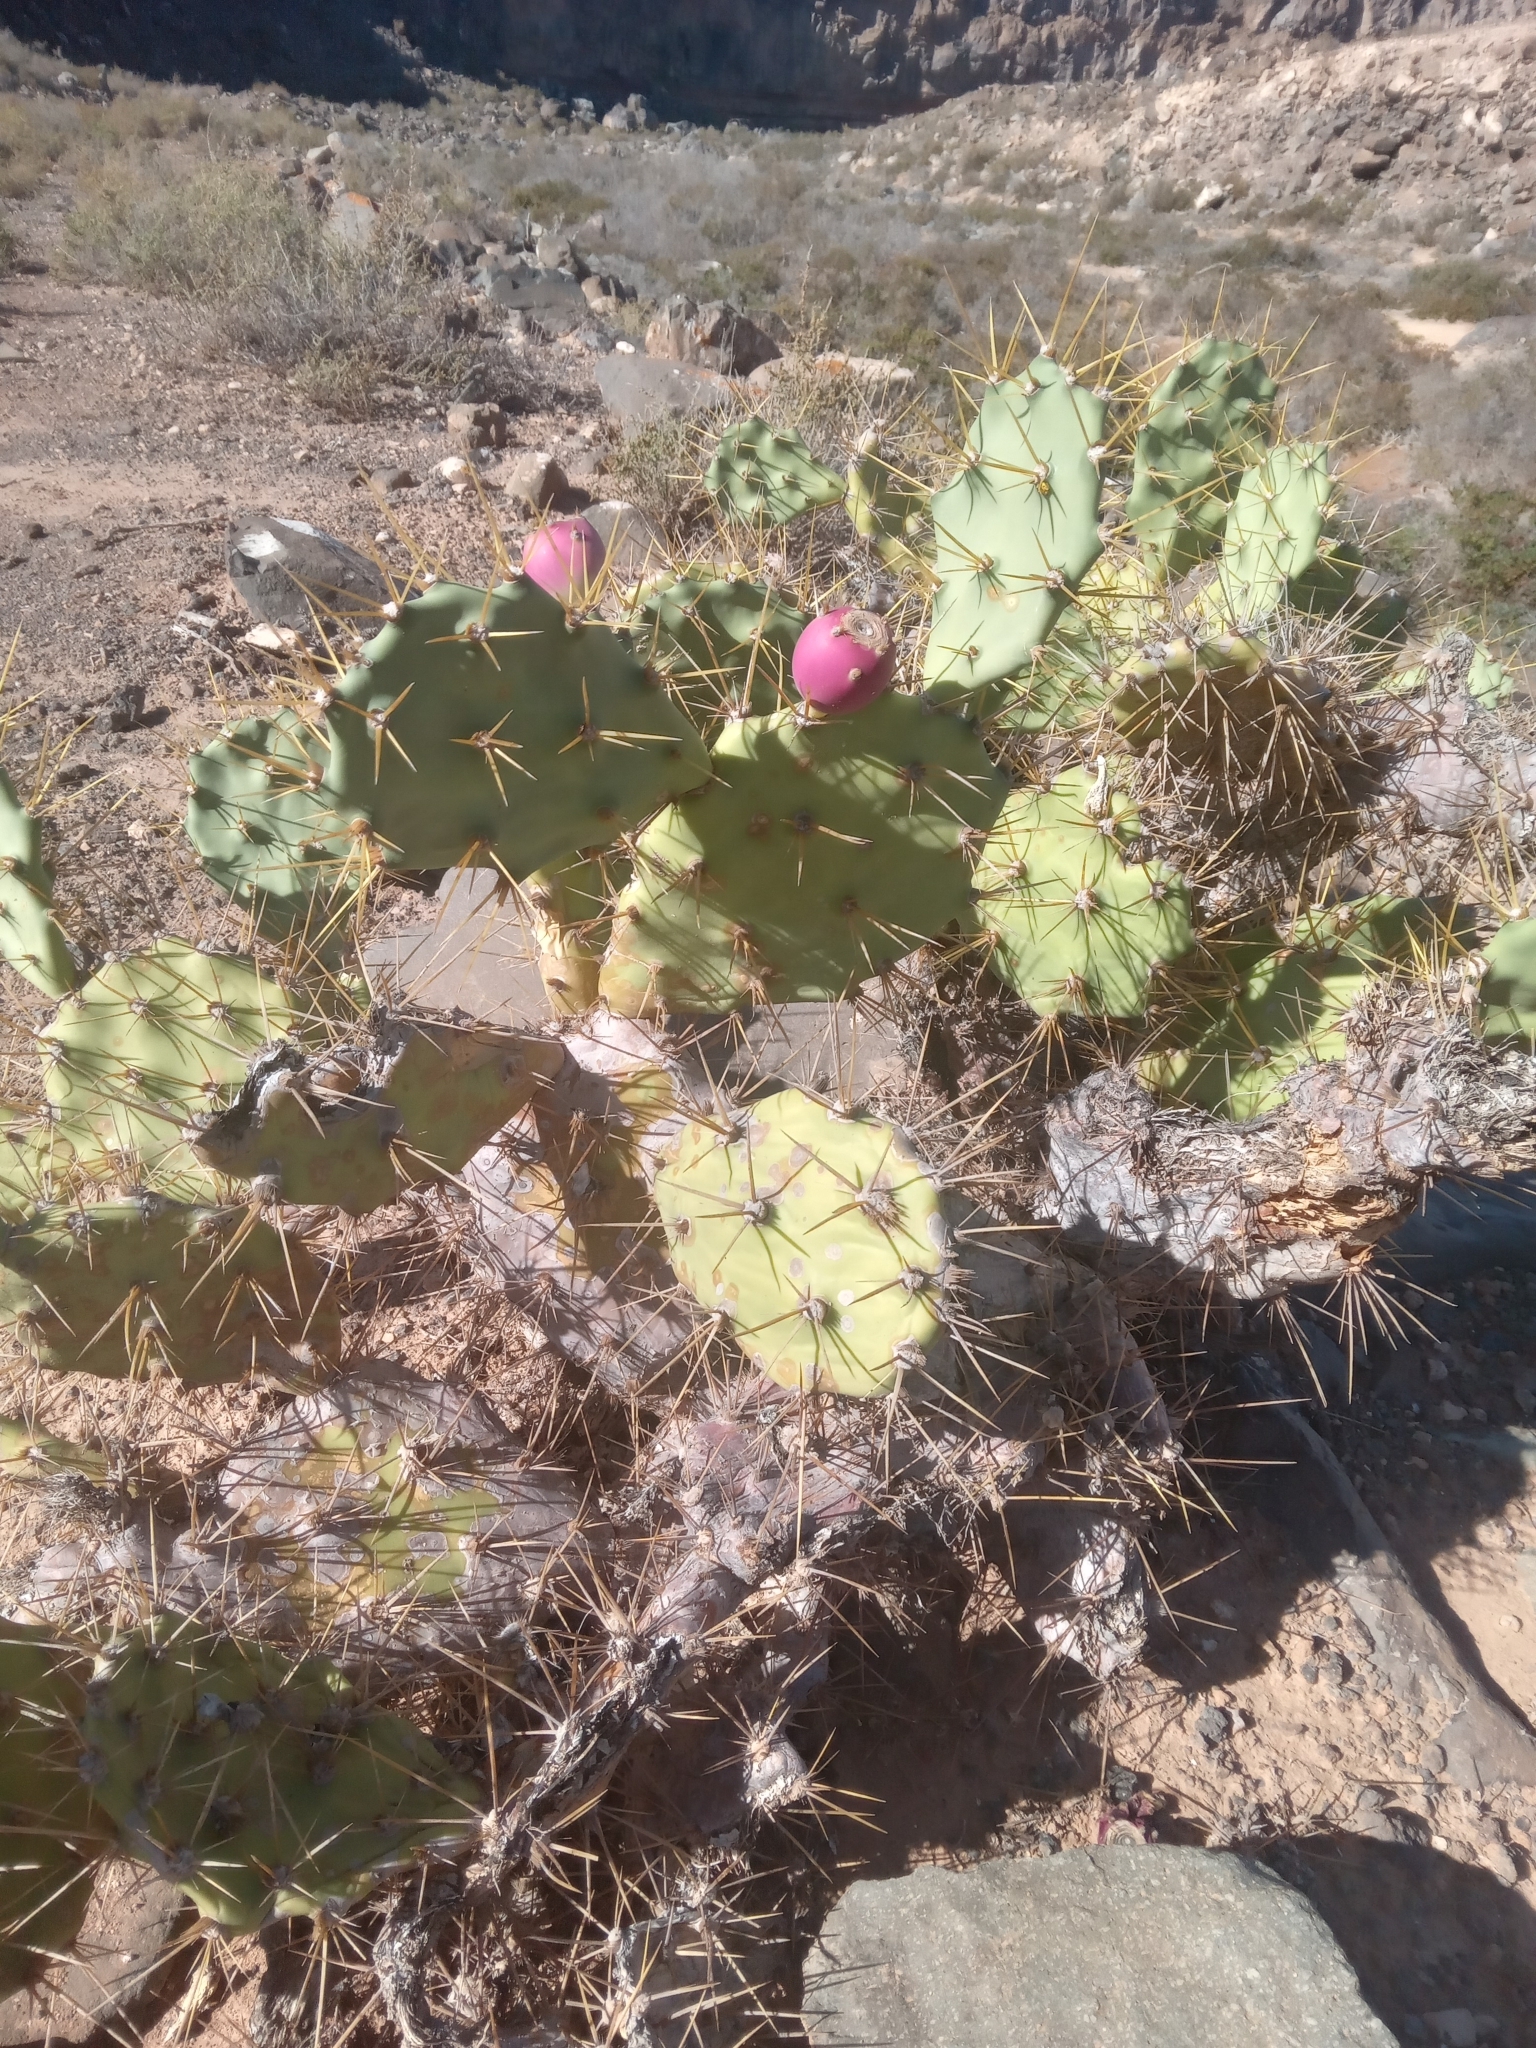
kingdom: Plantae
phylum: Tracheophyta
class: Magnoliopsida
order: Caryophyllales
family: Cactaceae
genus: Opuntia
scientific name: Opuntia stricta
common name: Erect pricklypear
